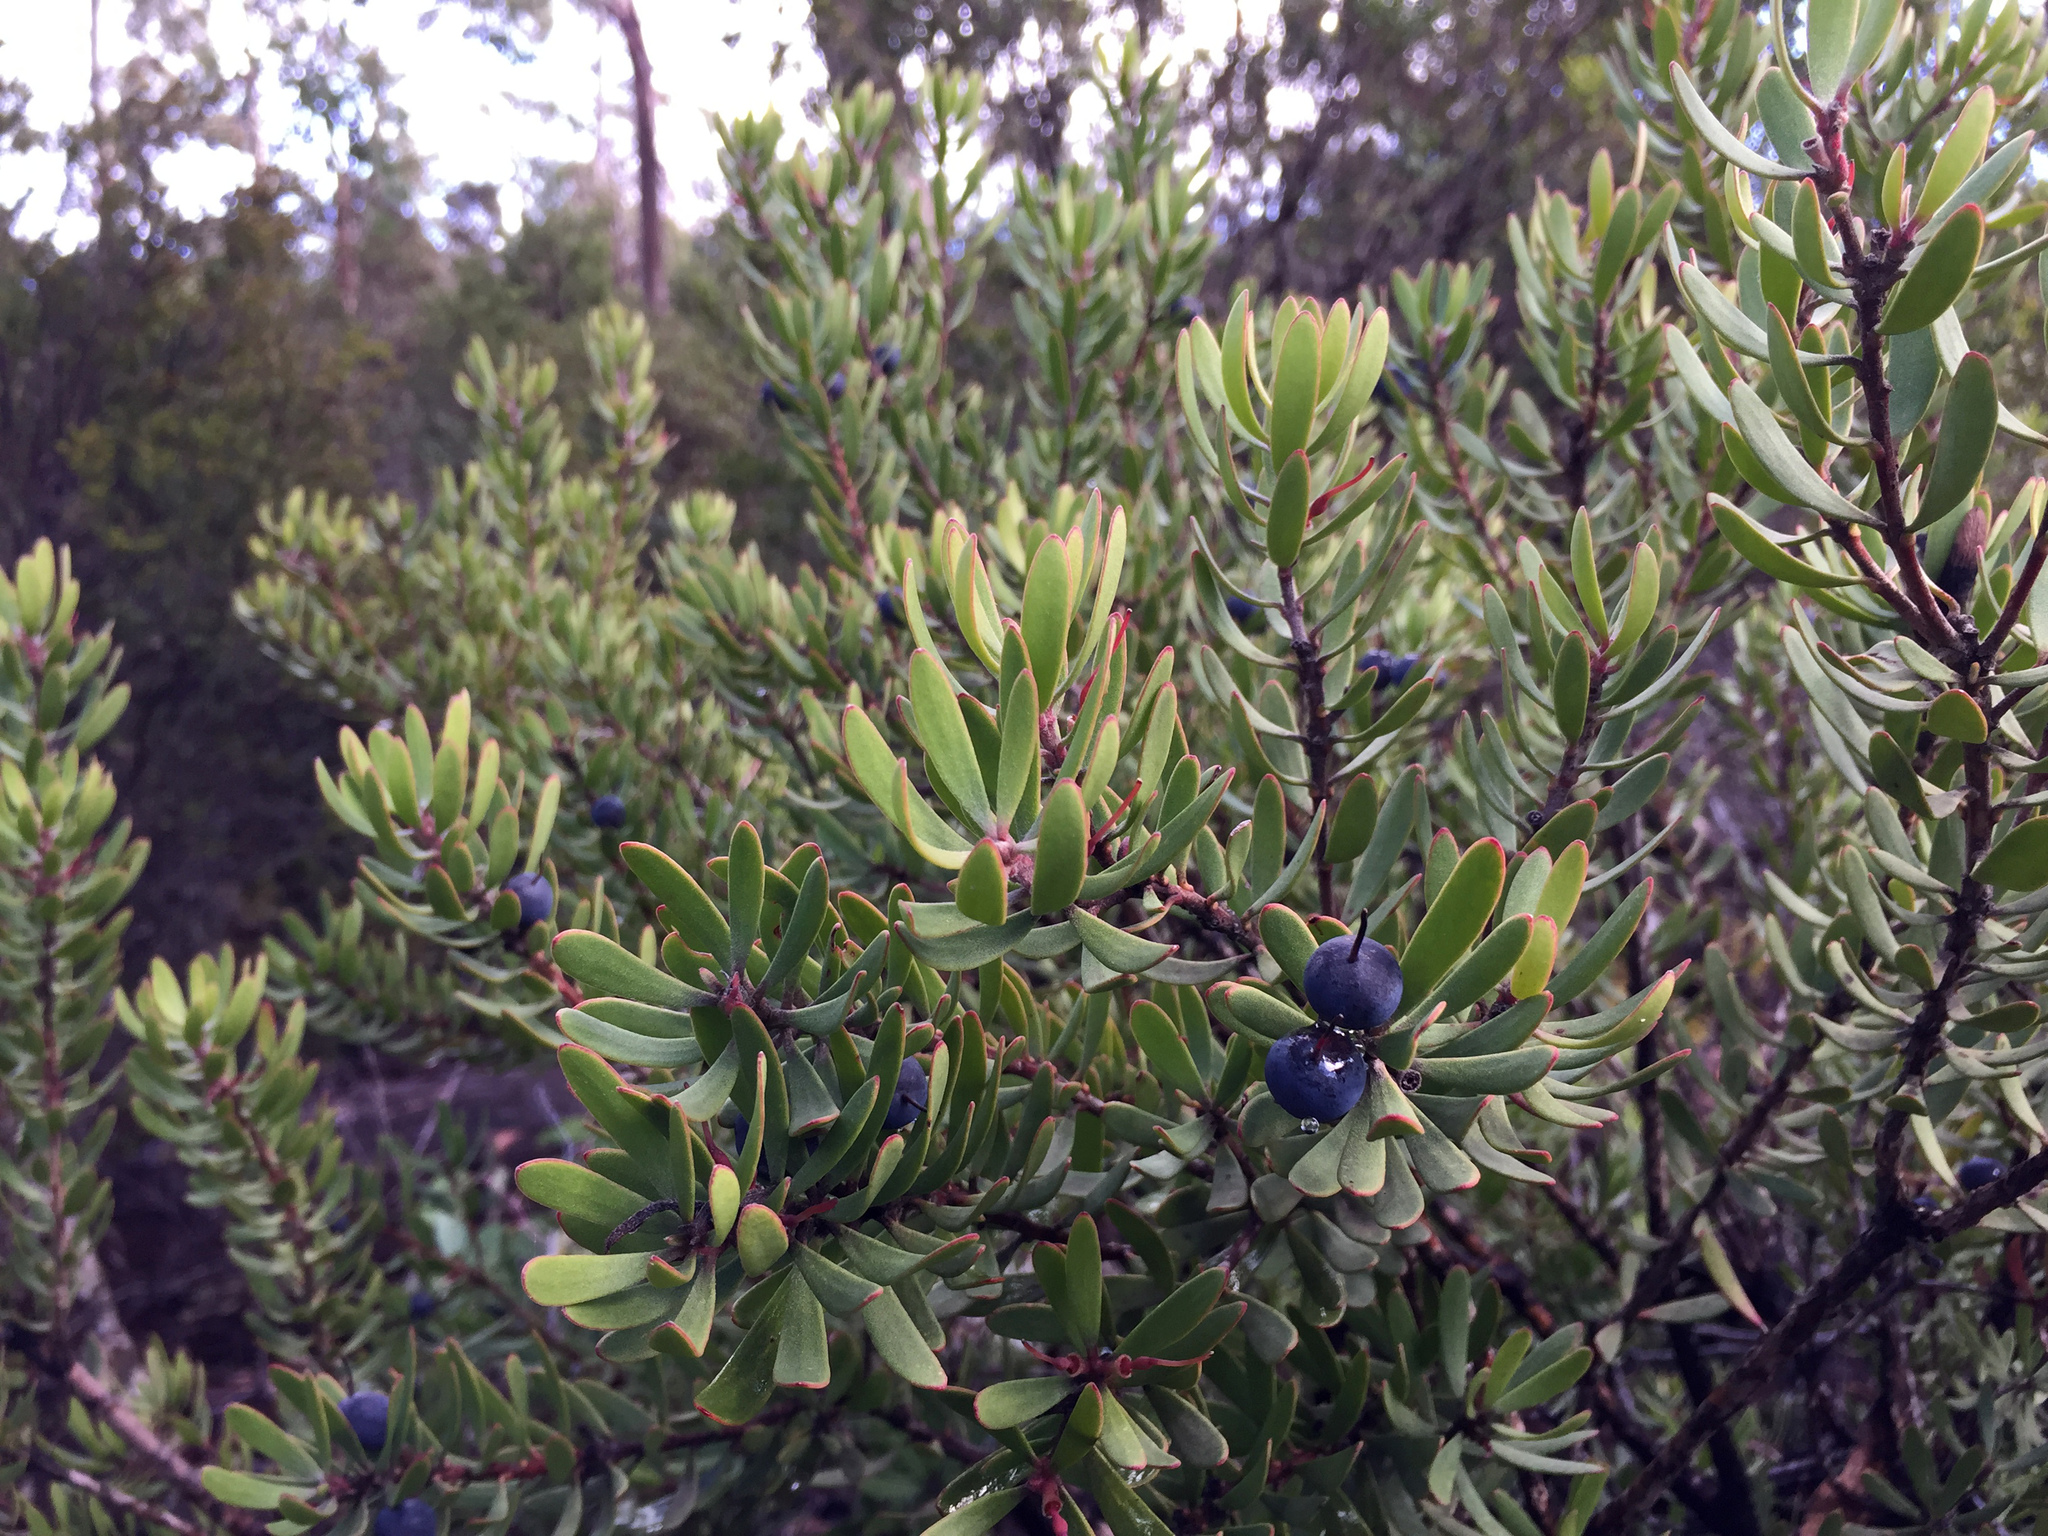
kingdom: Plantae
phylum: Tracheophyta
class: Magnoliopsida
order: Proteales
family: Proteaceae
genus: Persoonia
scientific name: Persoonia muelleri
